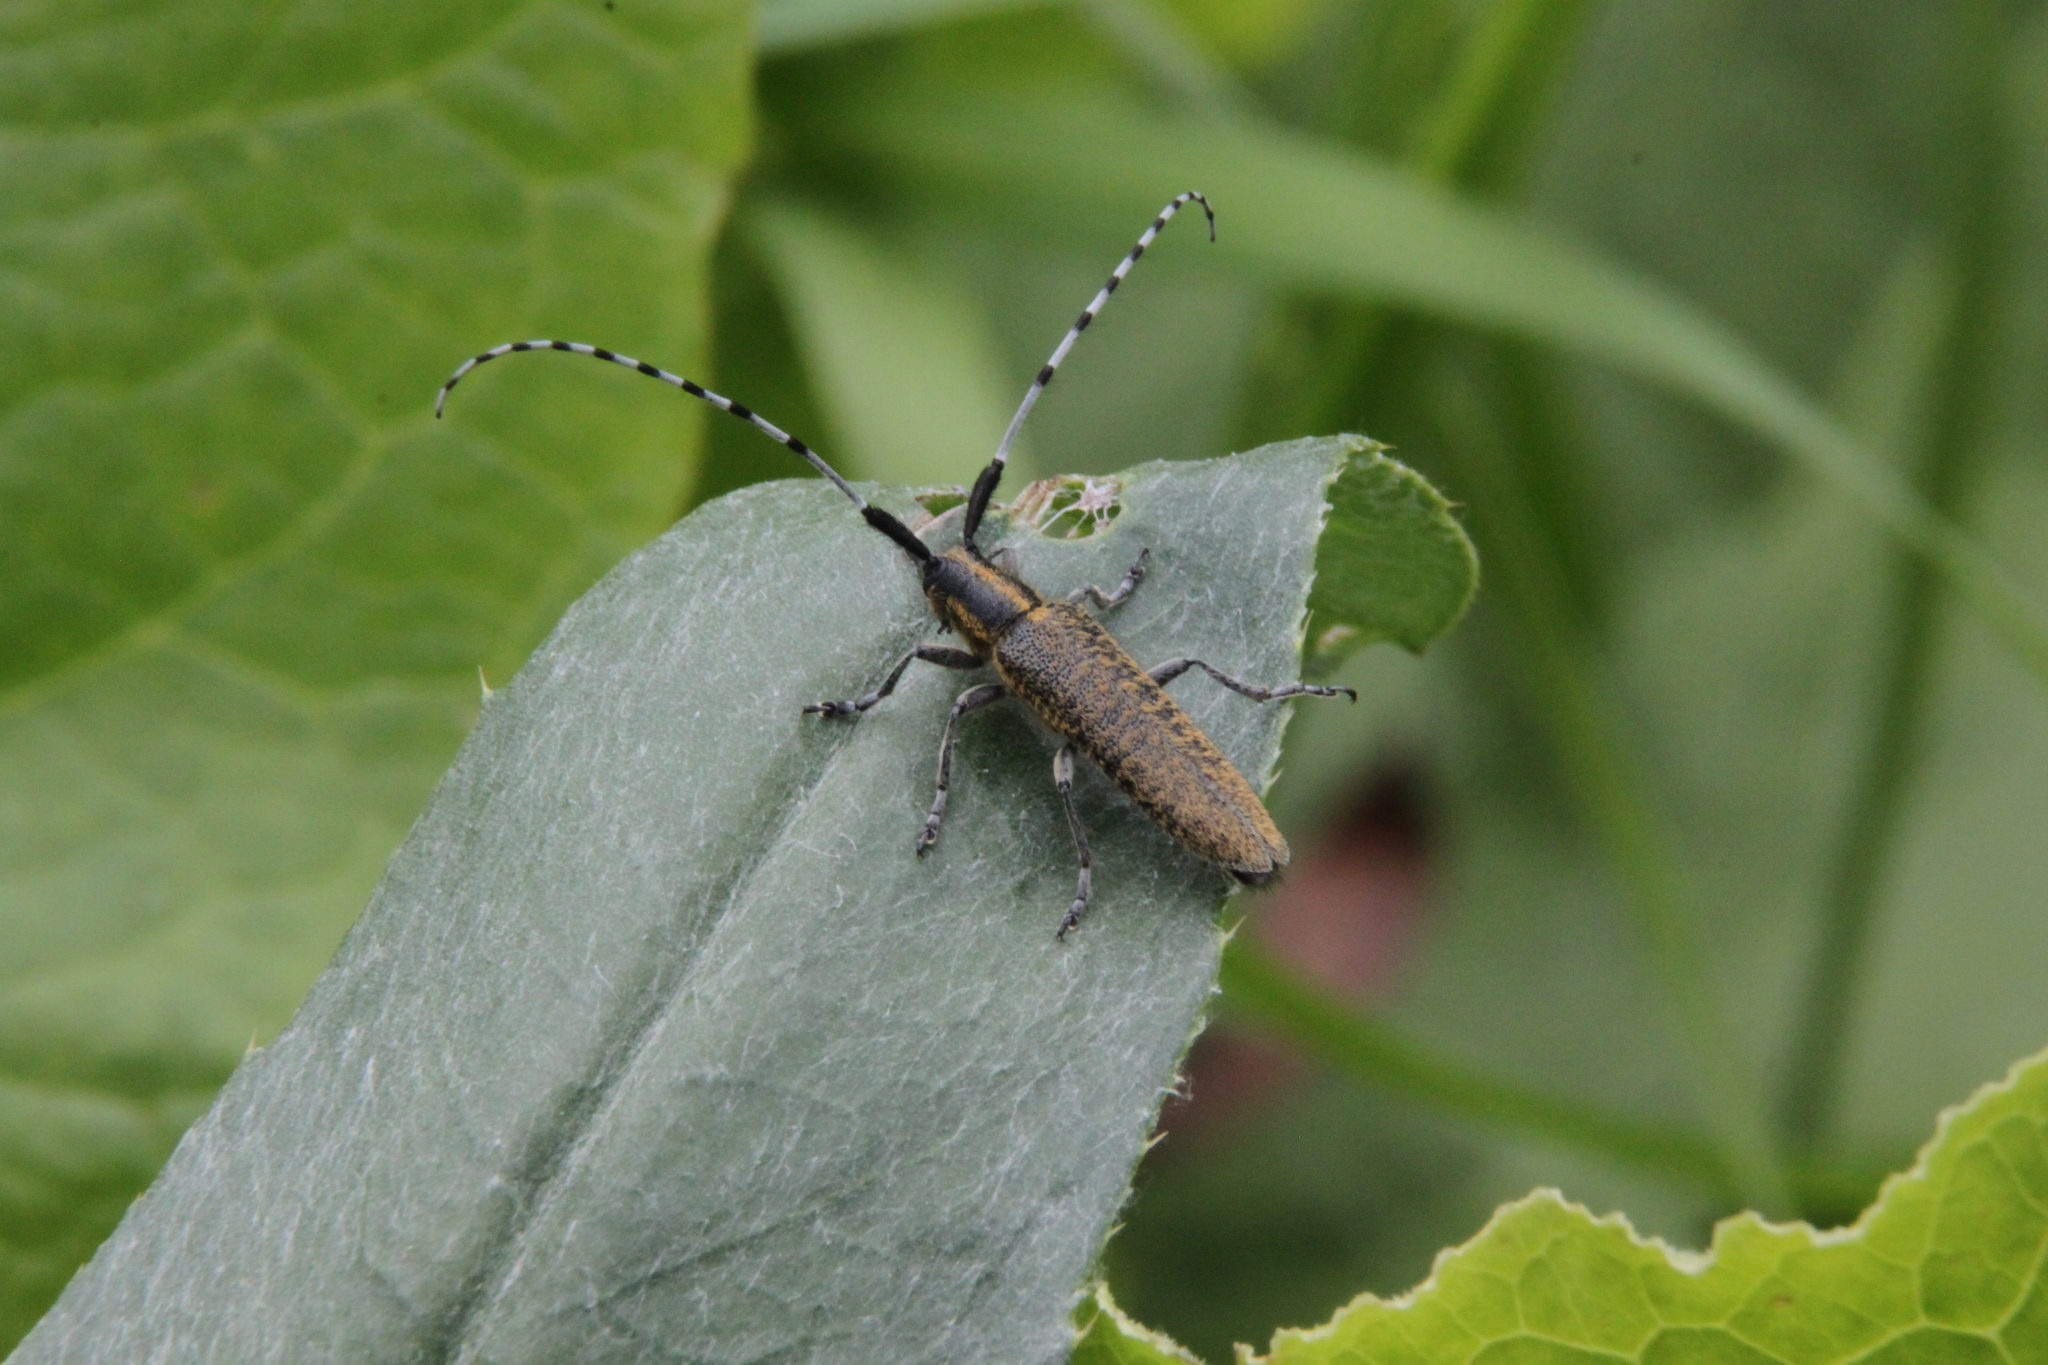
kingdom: Animalia
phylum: Arthropoda
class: Insecta
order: Coleoptera
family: Cerambycidae
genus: Agapanthia
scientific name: Agapanthia villosoviridescens
